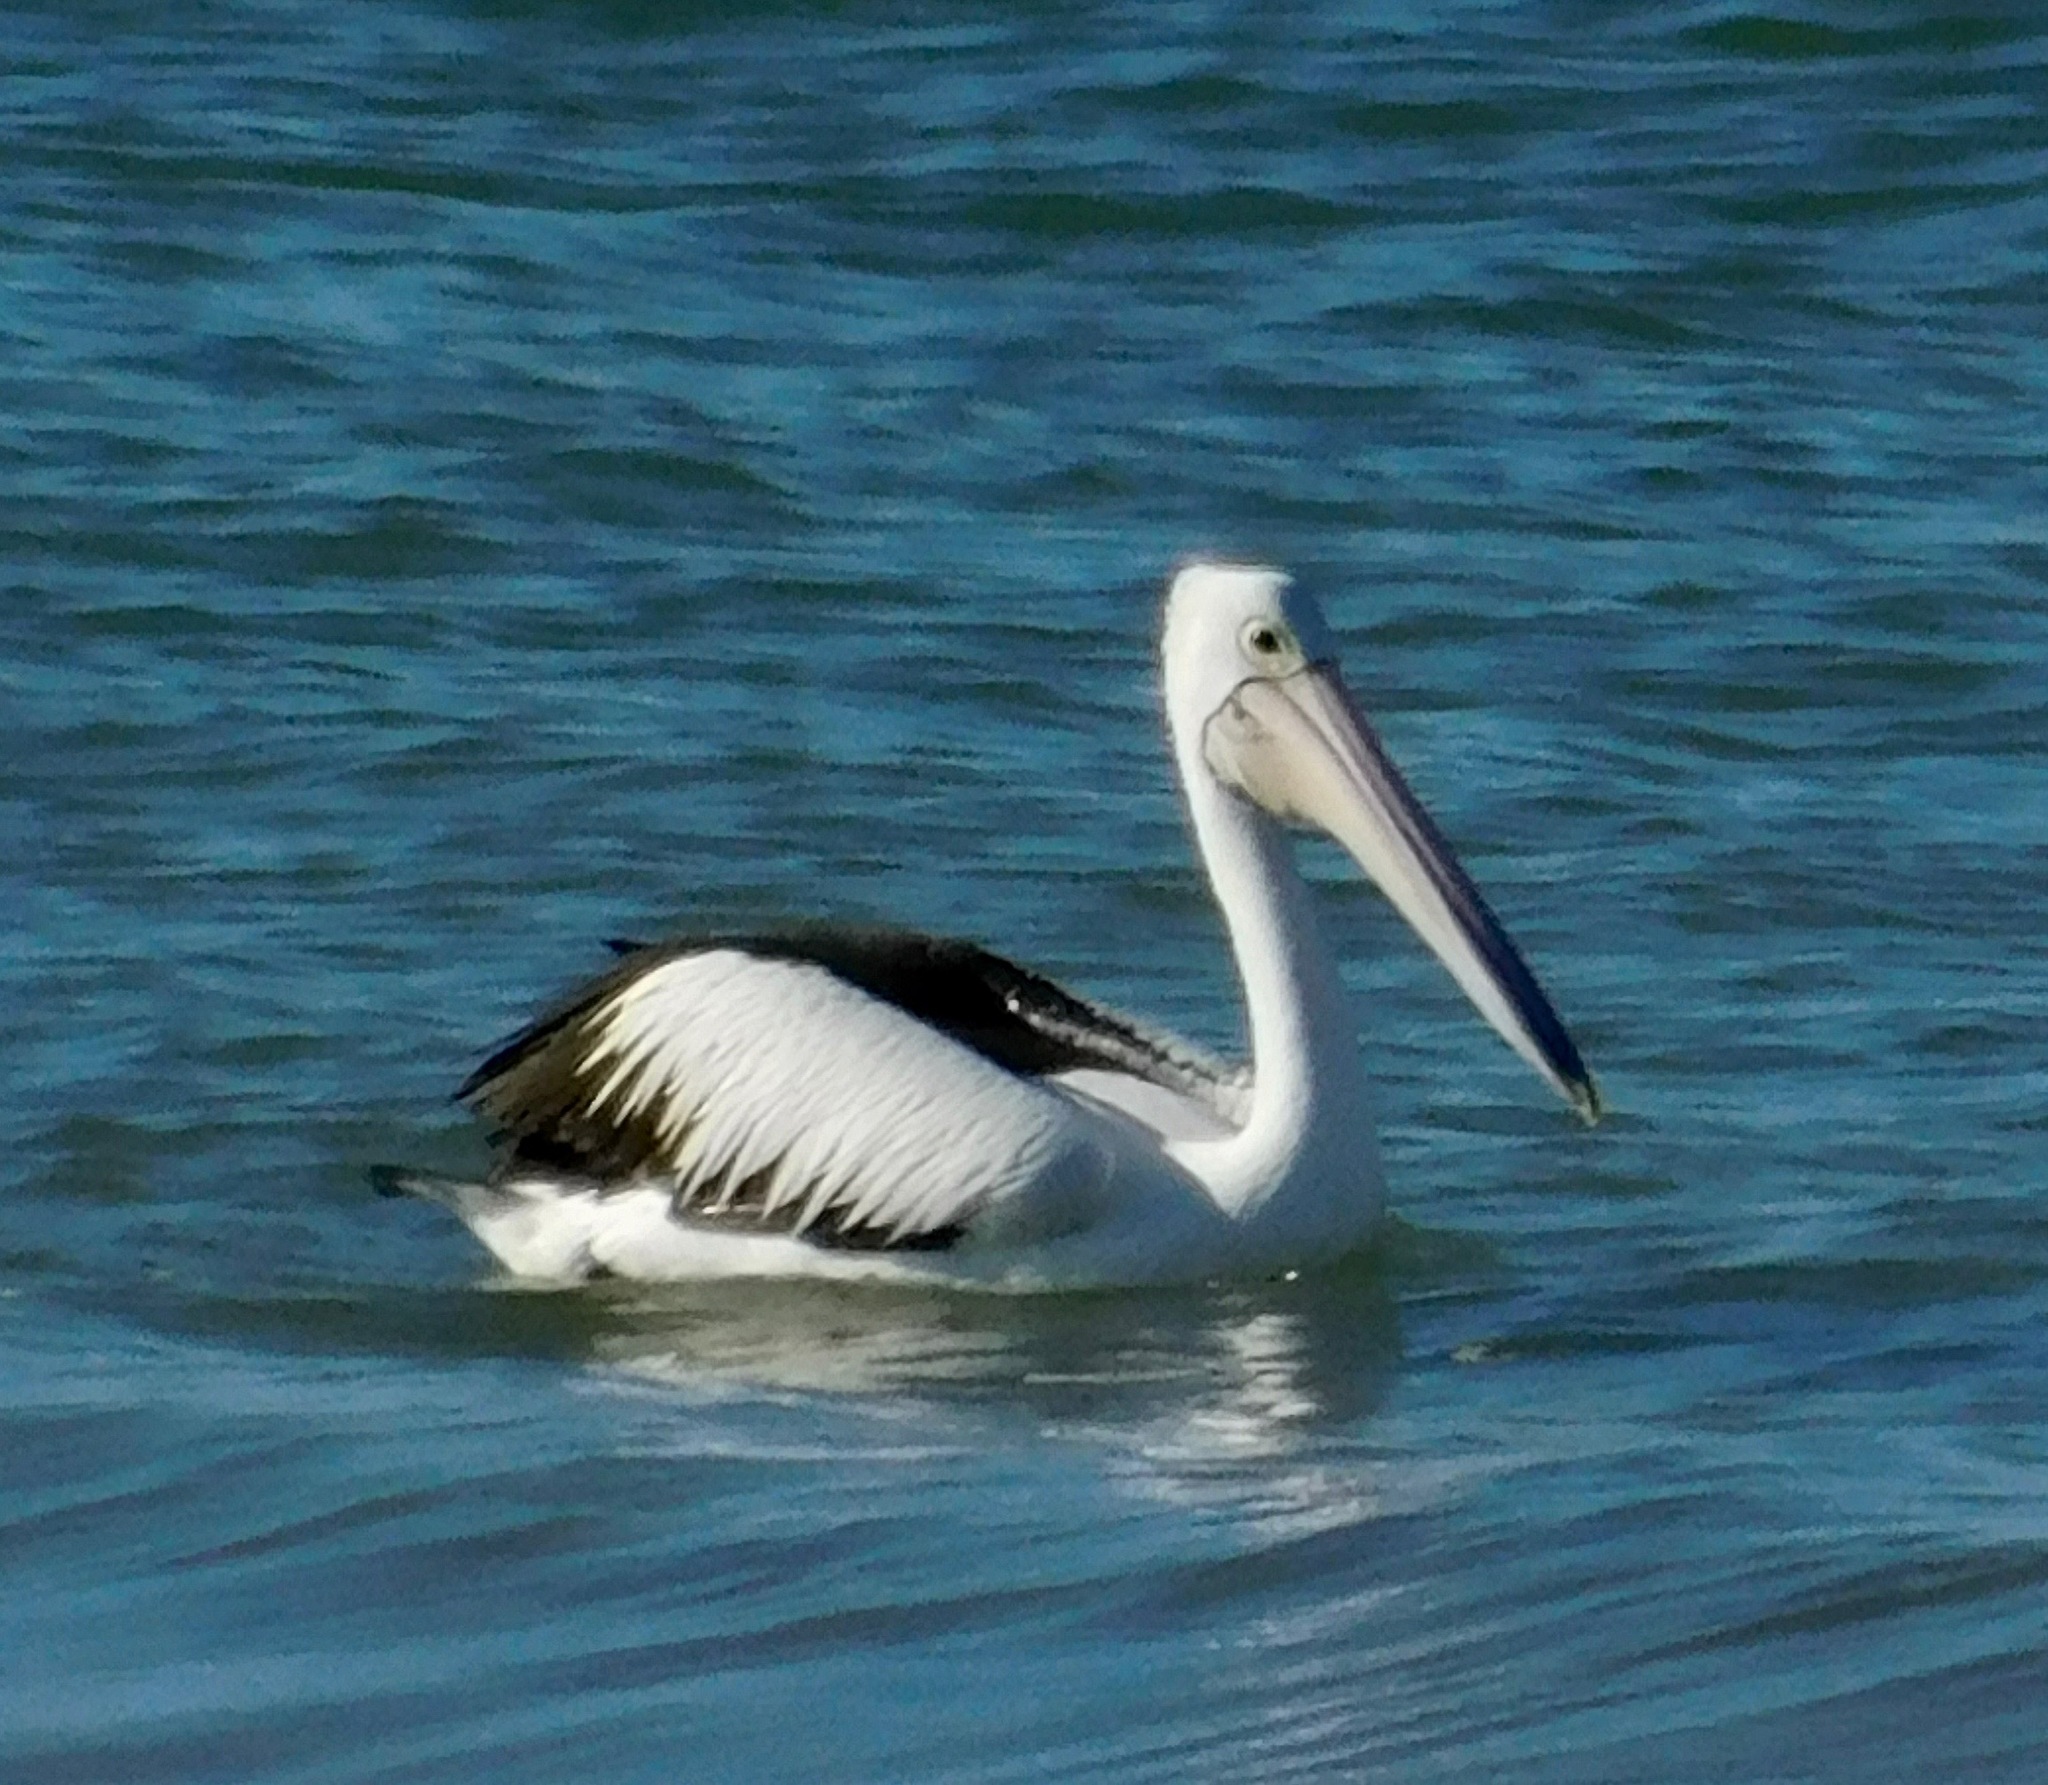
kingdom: Animalia
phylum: Chordata
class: Aves
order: Pelecaniformes
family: Pelecanidae
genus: Pelecanus
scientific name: Pelecanus conspicillatus
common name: Australian pelican
